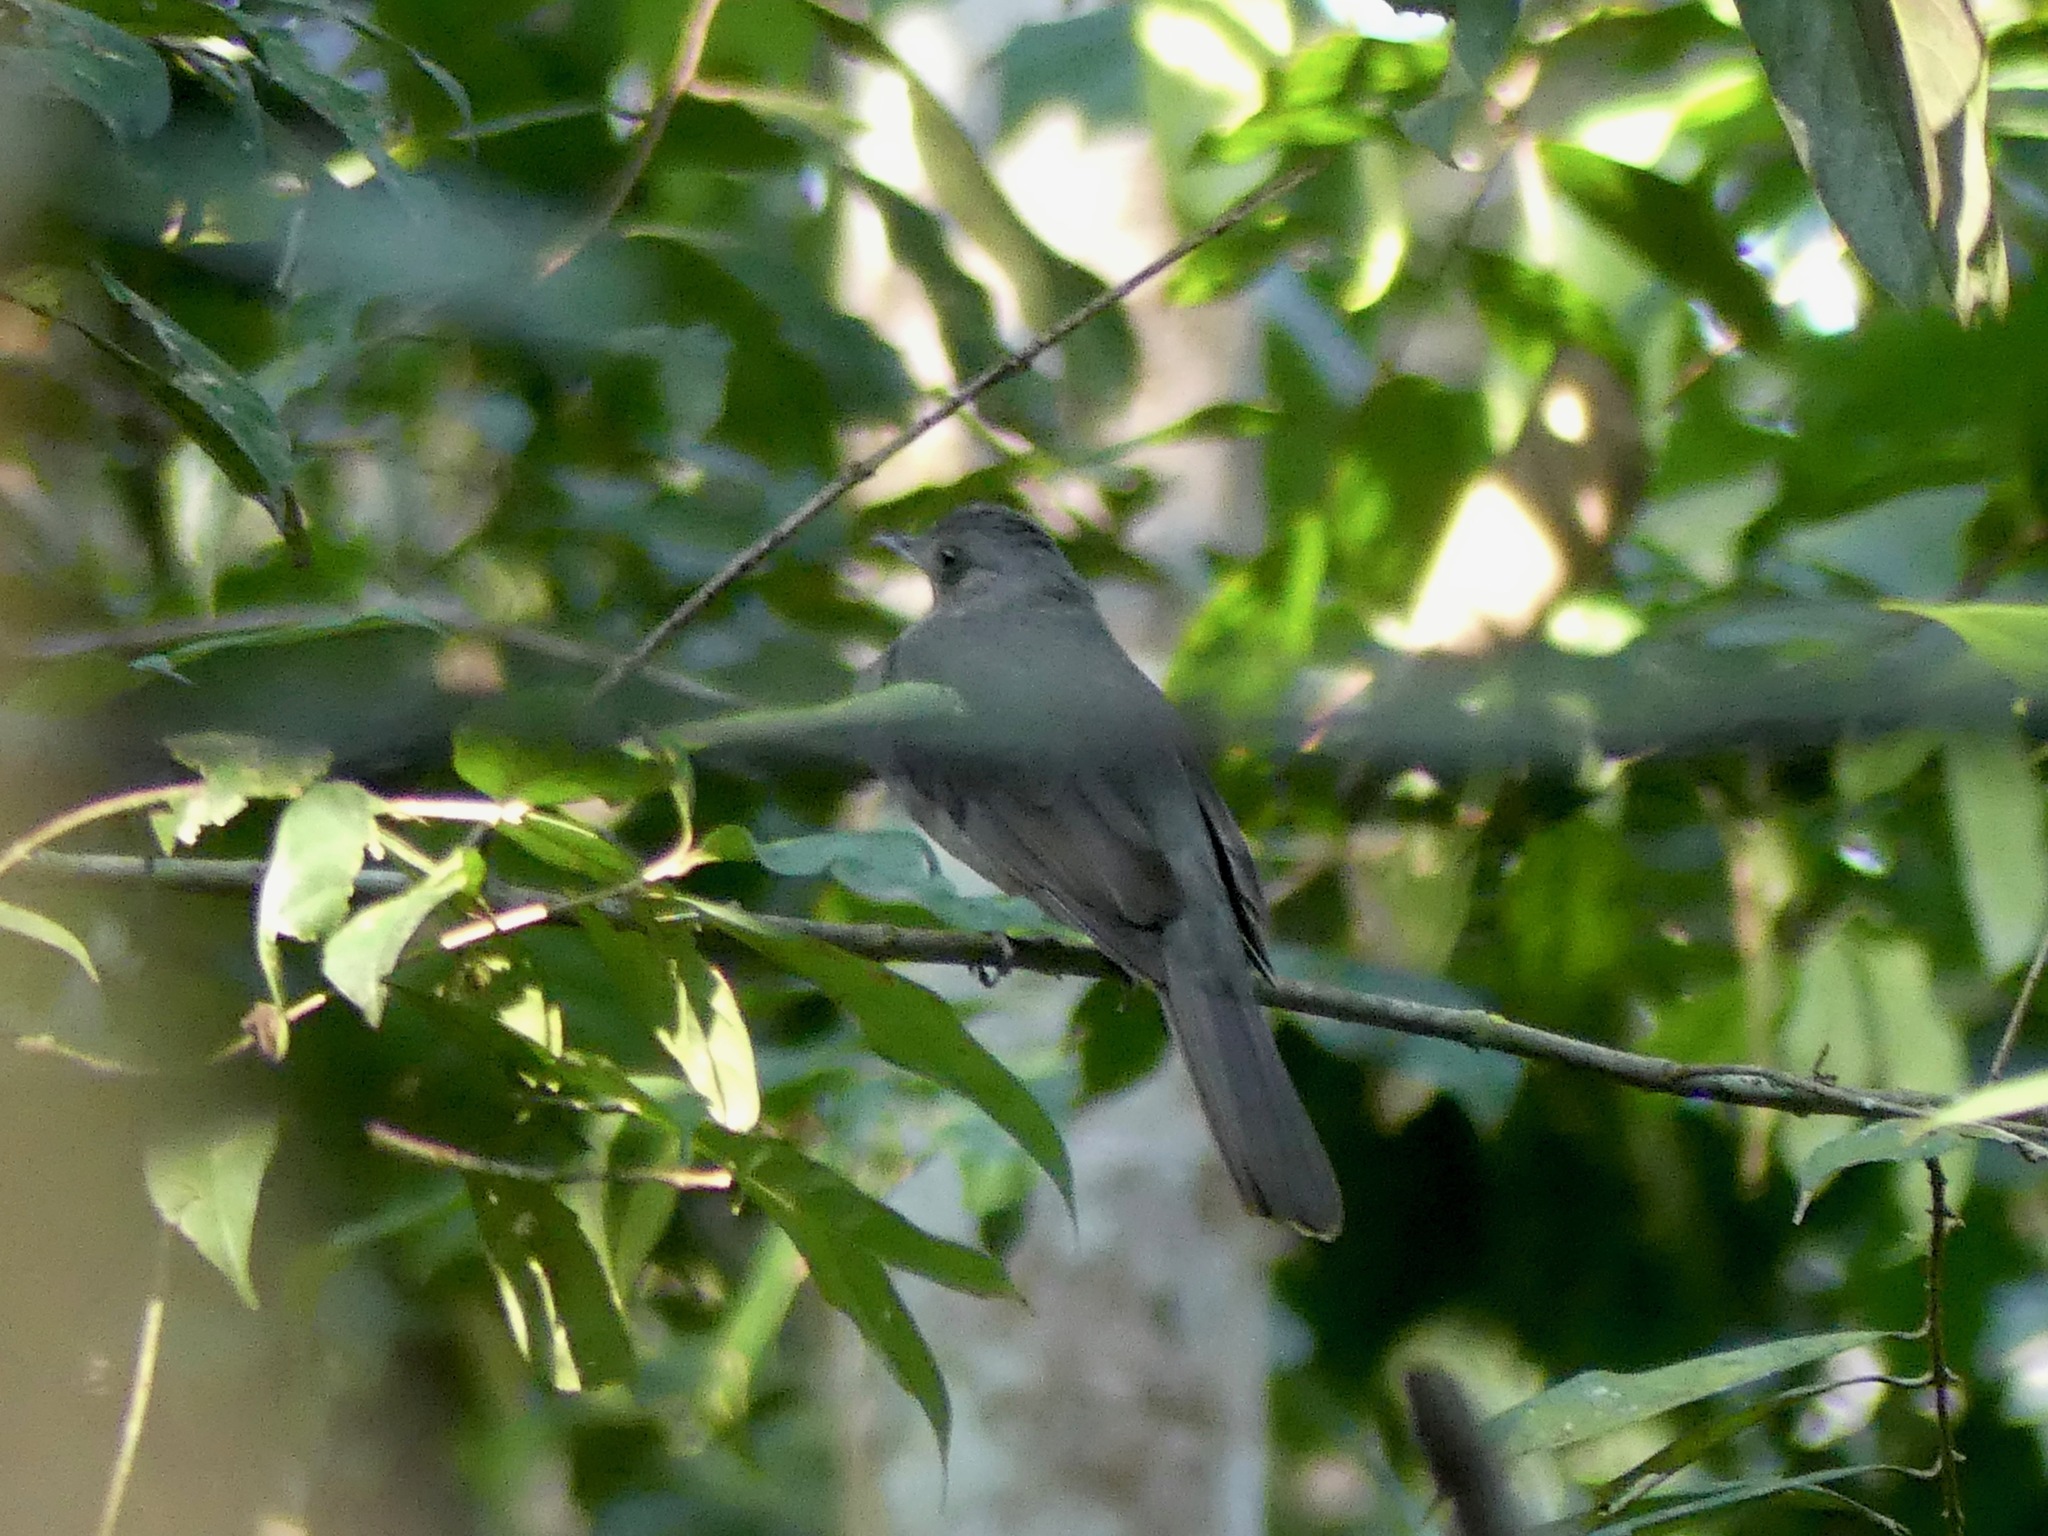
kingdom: Animalia
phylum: Chordata
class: Aves
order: Passeriformes
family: Cotingidae
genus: Lipaugus
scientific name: Lipaugus vociferans
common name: Screaming piha
